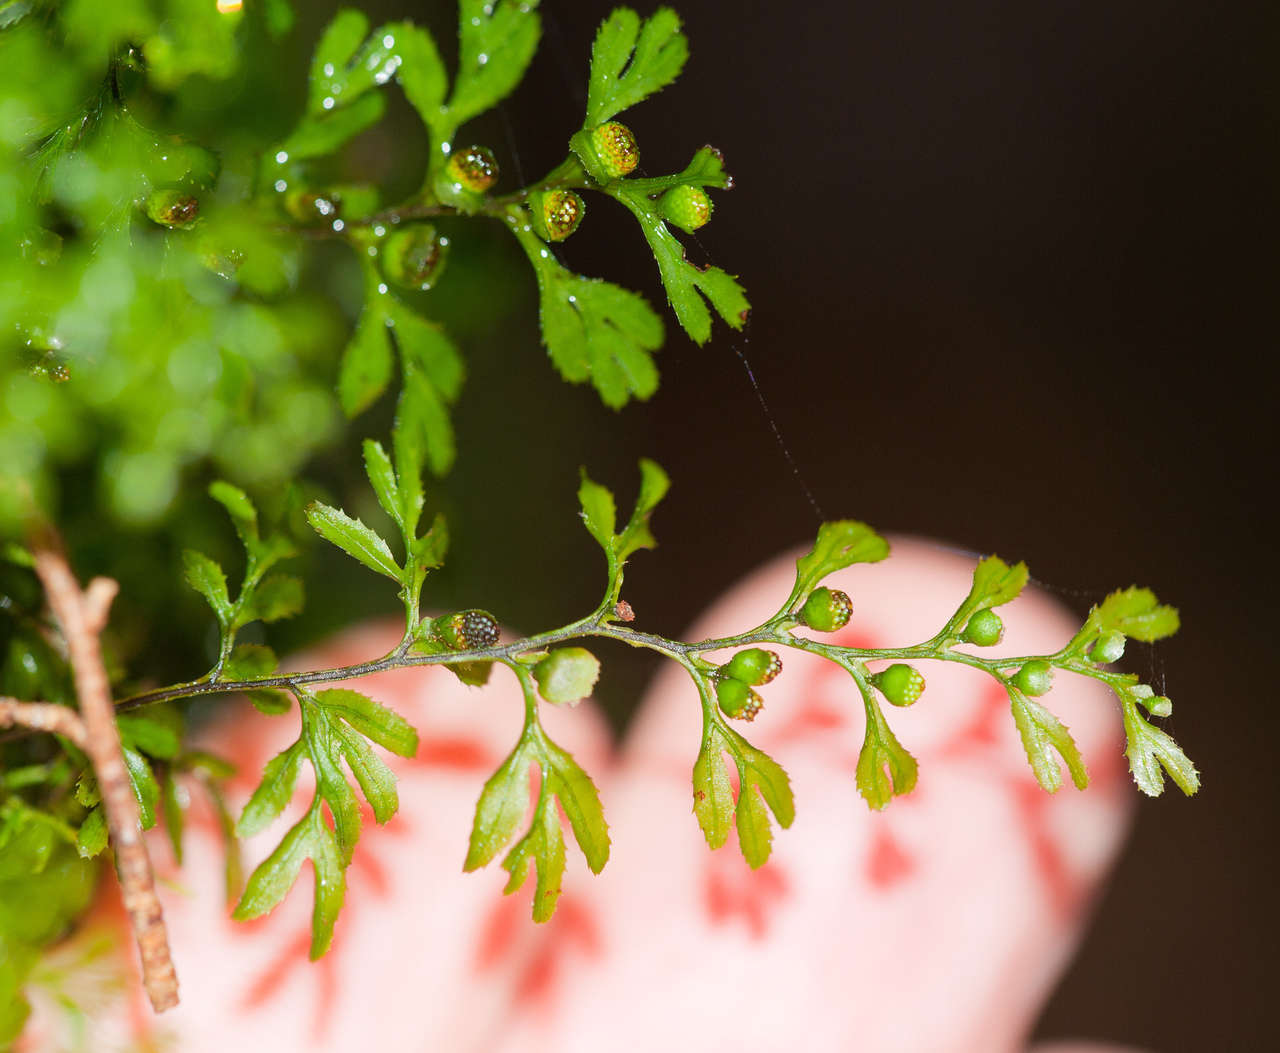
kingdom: Plantae
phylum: Tracheophyta
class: Polypodiopsida
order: Hymenophyllales
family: Hymenophyllaceae
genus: Hymenophyllum
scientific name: Hymenophyllum cupressiforme
